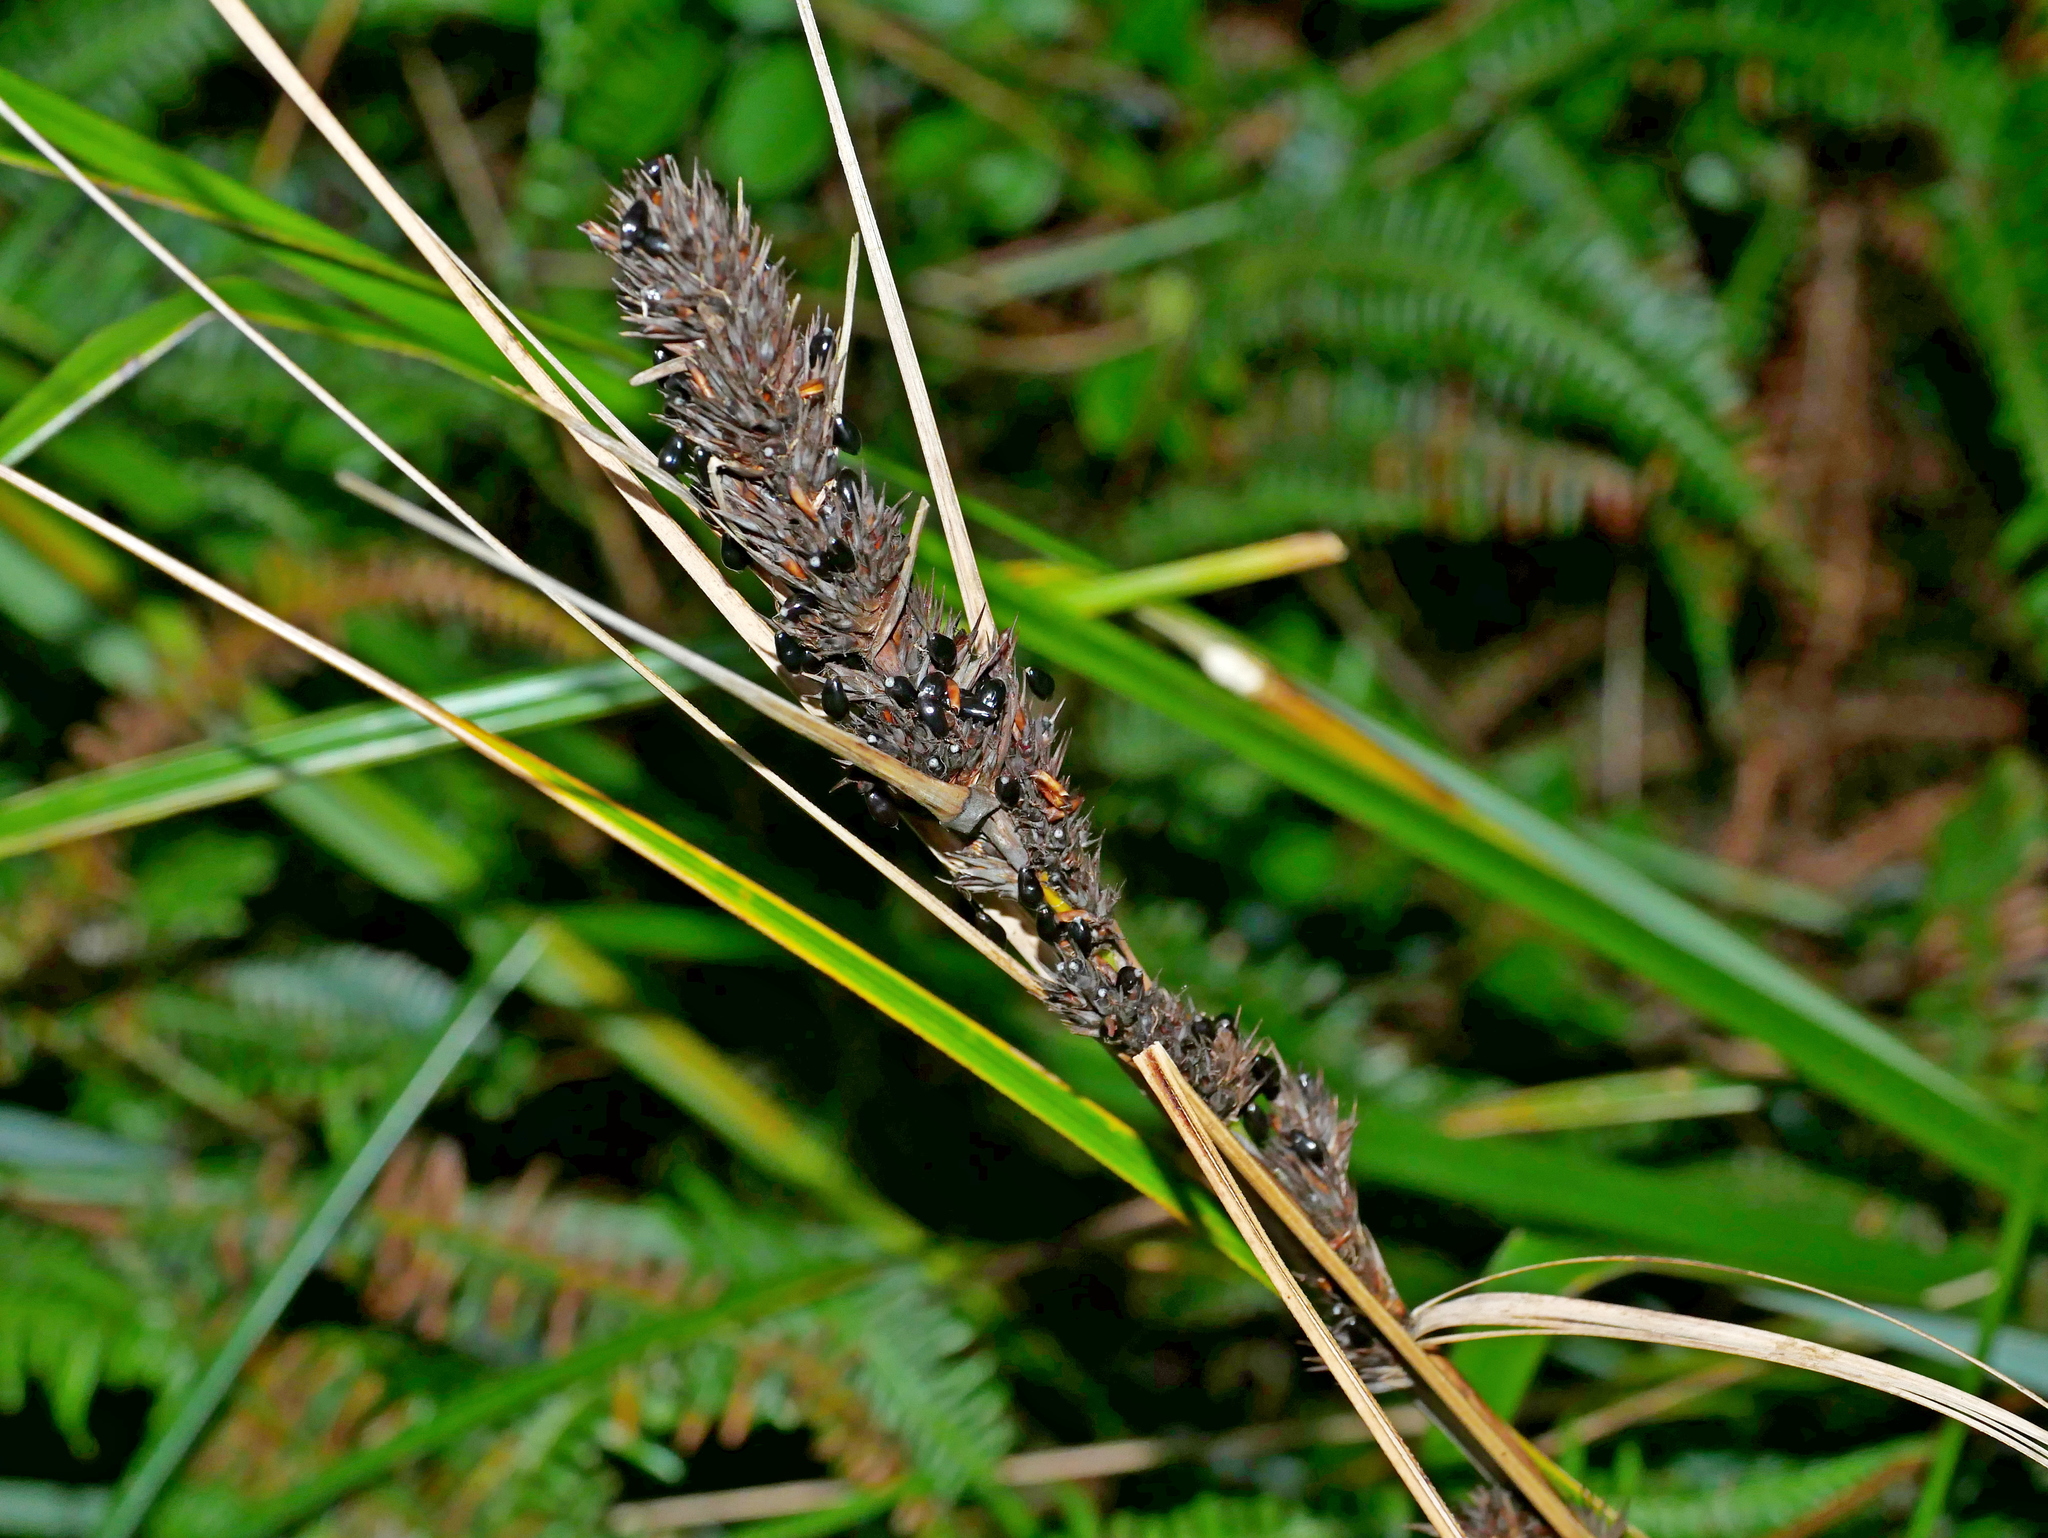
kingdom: Plantae
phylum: Tracheophyta
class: Liliopsida
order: Poales
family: Cyperaceae
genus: Gahnia
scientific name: Gahnia tristis
